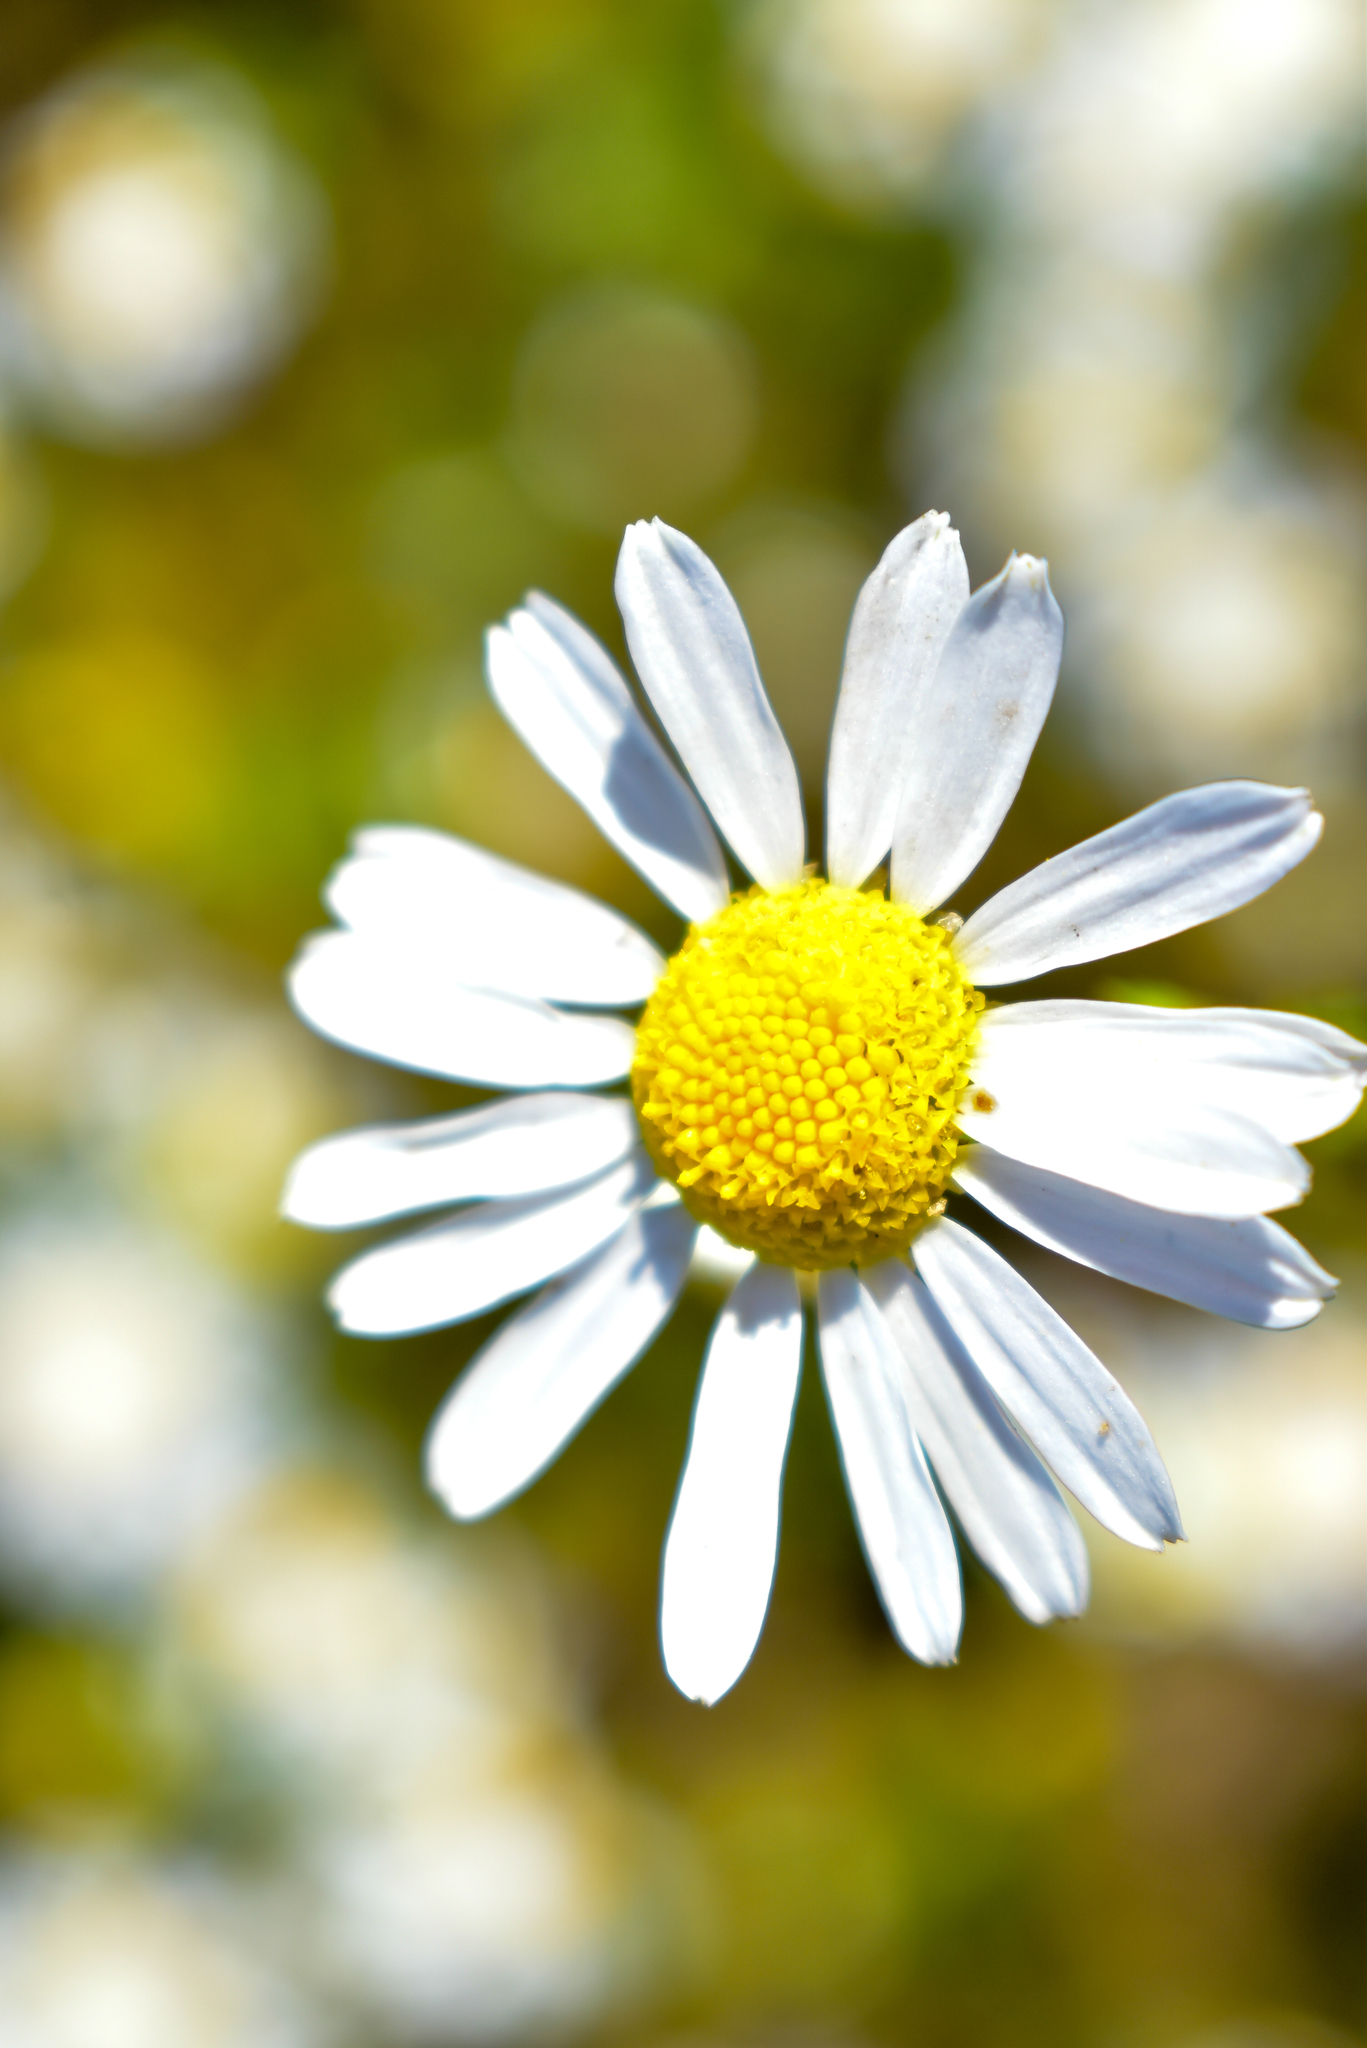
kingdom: Plantae
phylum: Tracheophyta
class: Magnoliopsida
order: Asterales
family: Asteraceae
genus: Tripleurospermum
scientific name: Tripleurospermum inodorum
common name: Scentless mayweed
